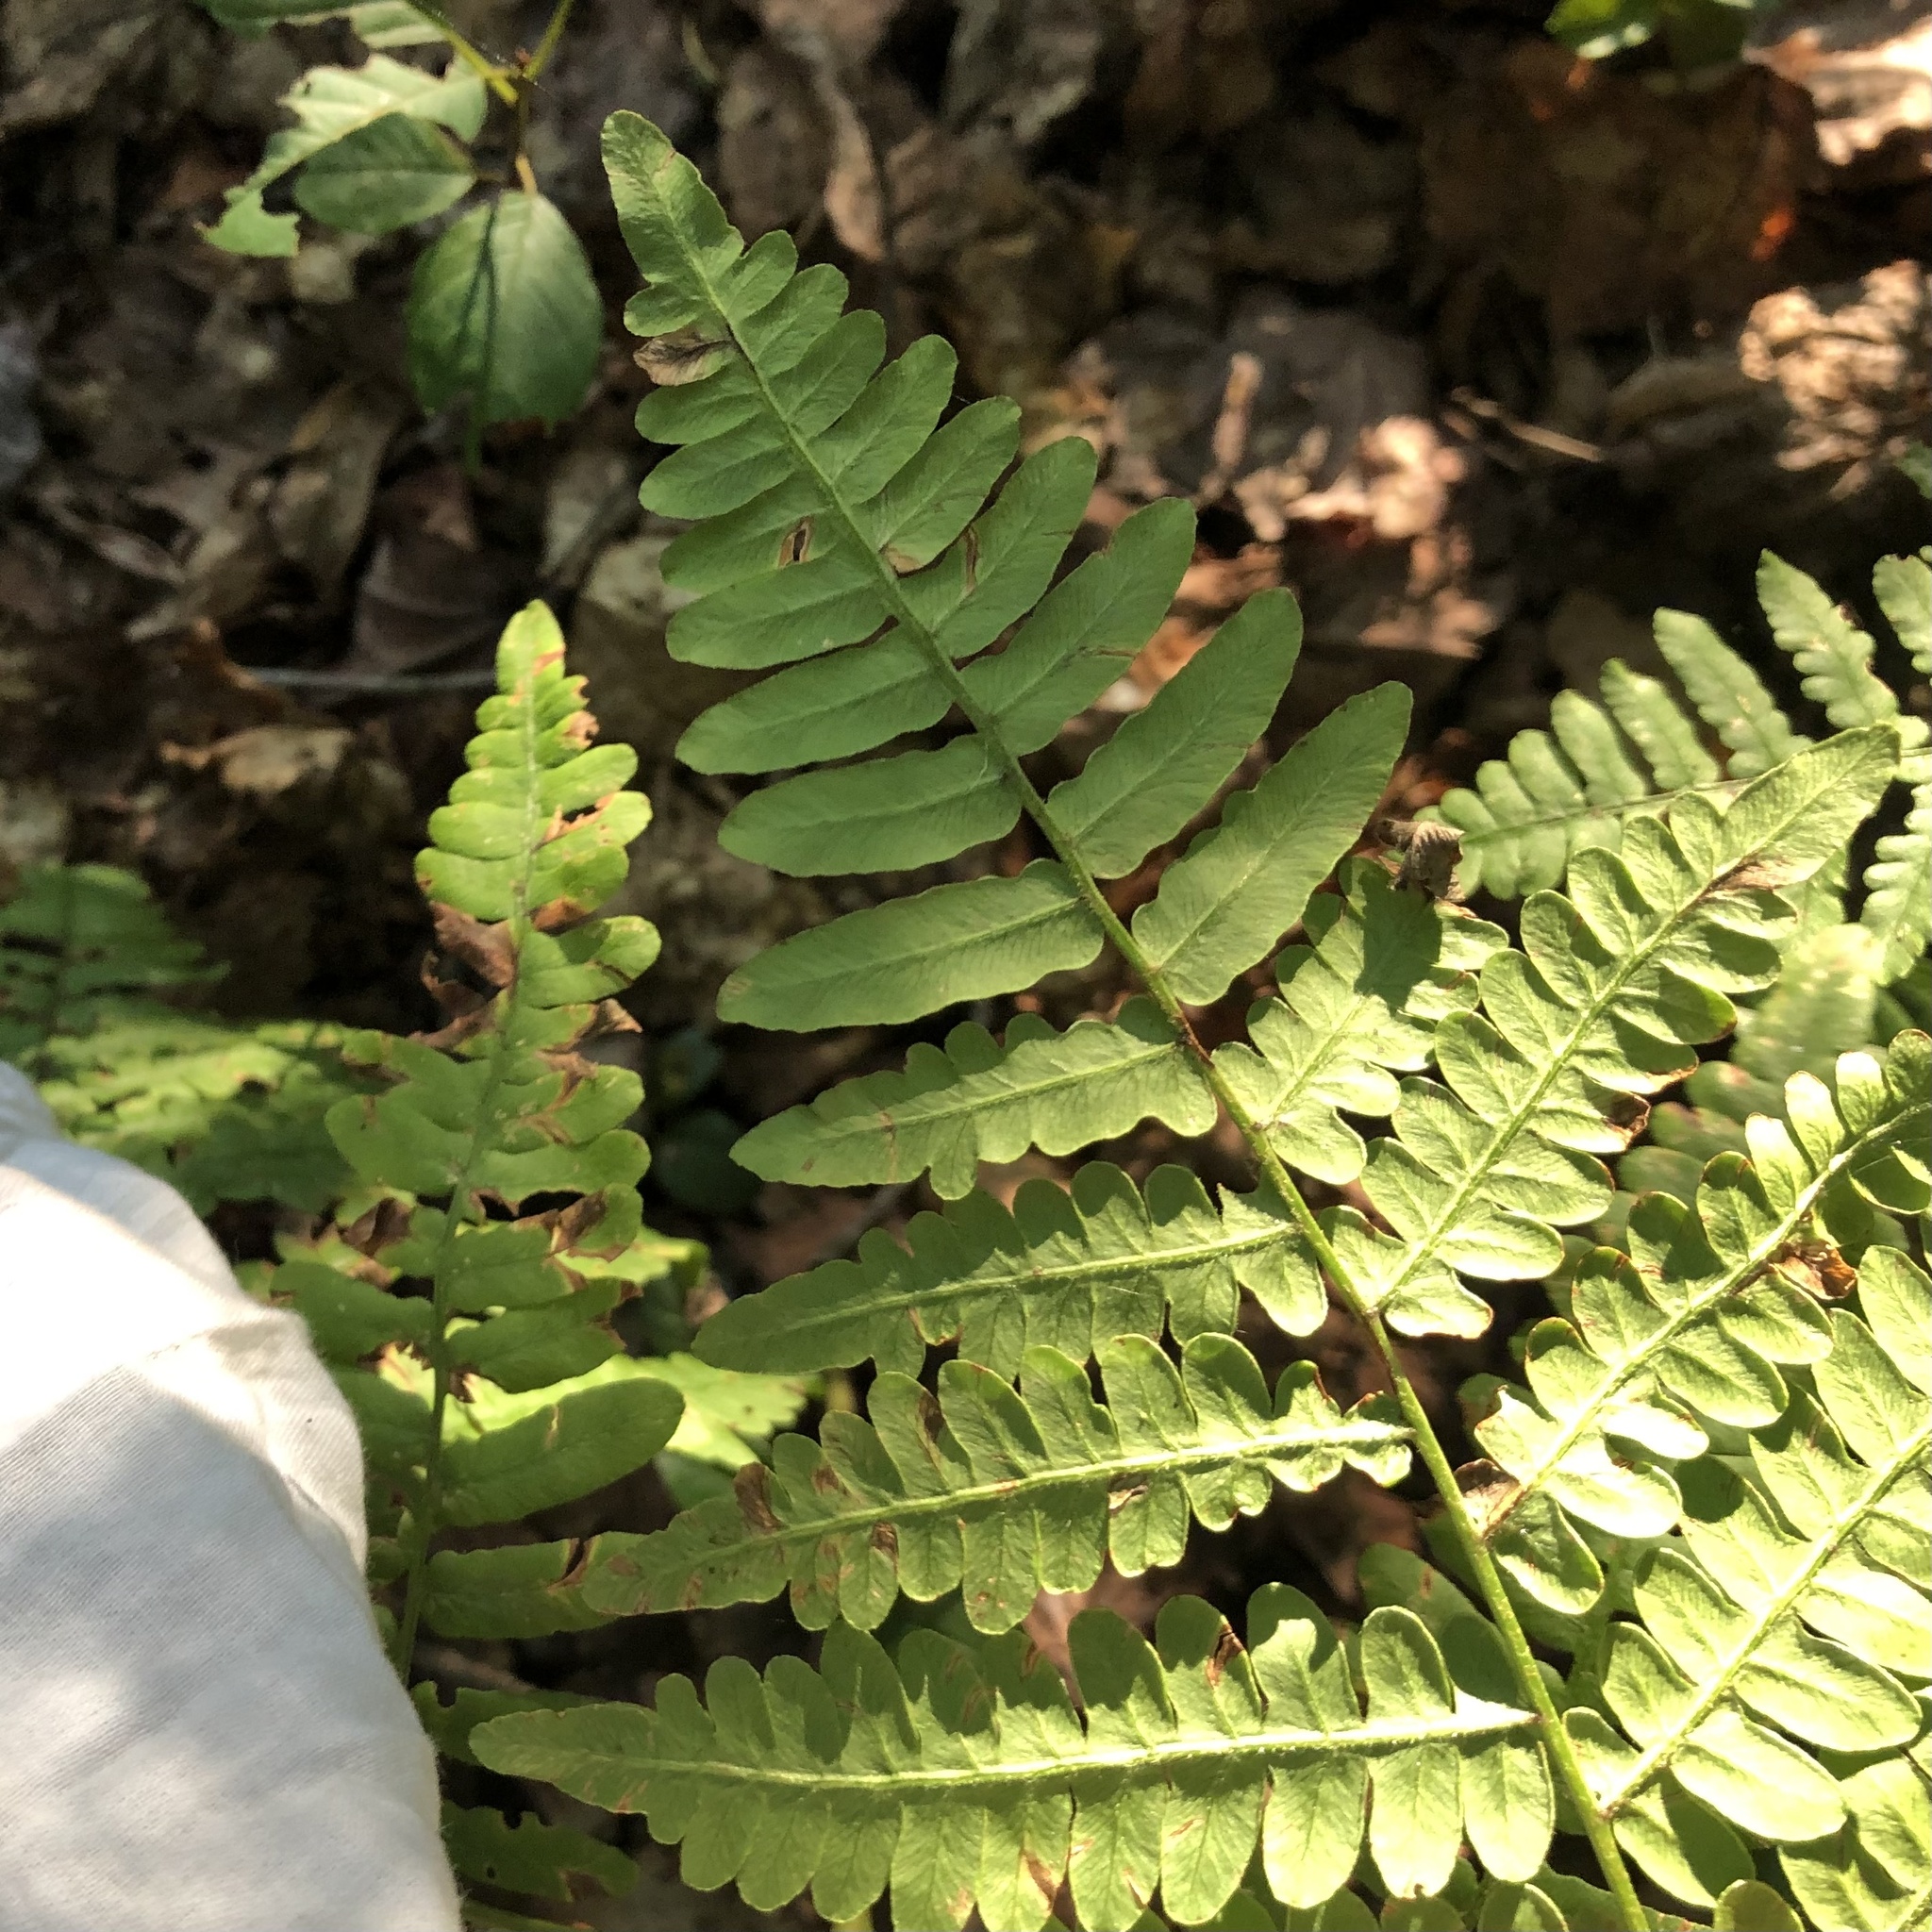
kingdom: Plantae
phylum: Tracheophyta
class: Polypodiopsida
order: Polypodiales
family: Dennstaedtiaceae
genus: Pteridium
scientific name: Pteridium aquilinum
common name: Bracken
